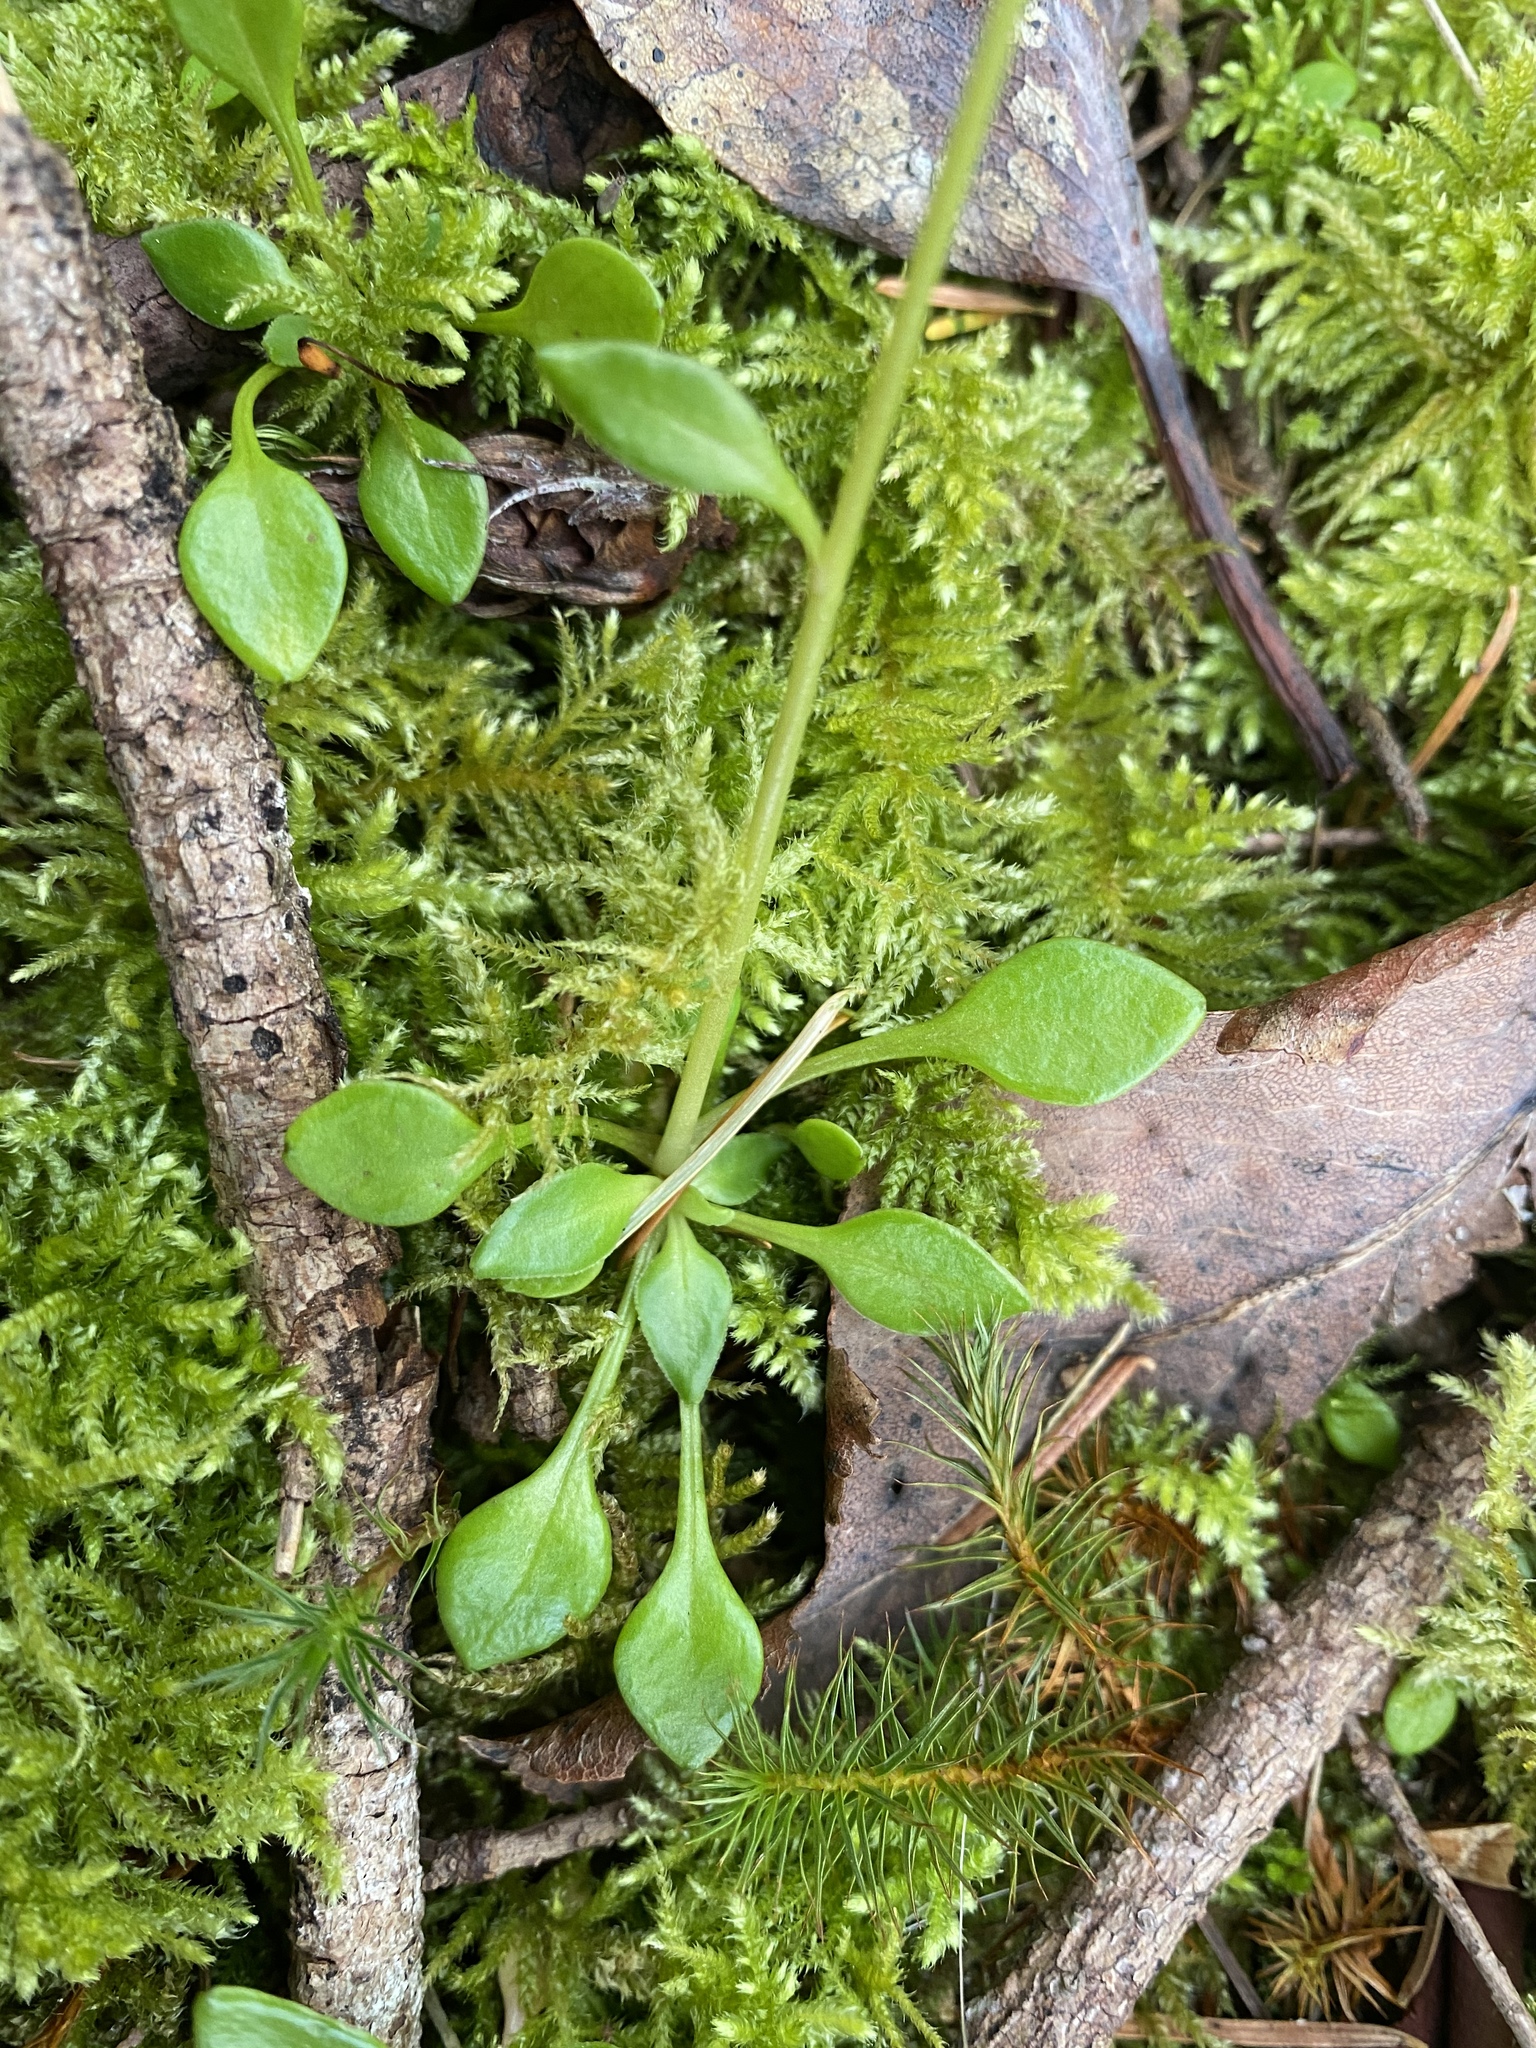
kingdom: Plantae
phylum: Tracheophyta
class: Magnoliopsida
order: Caryophyllales
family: Montiaceae
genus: Montia
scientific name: Montia parvifolia
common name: Small-leaved blinks
